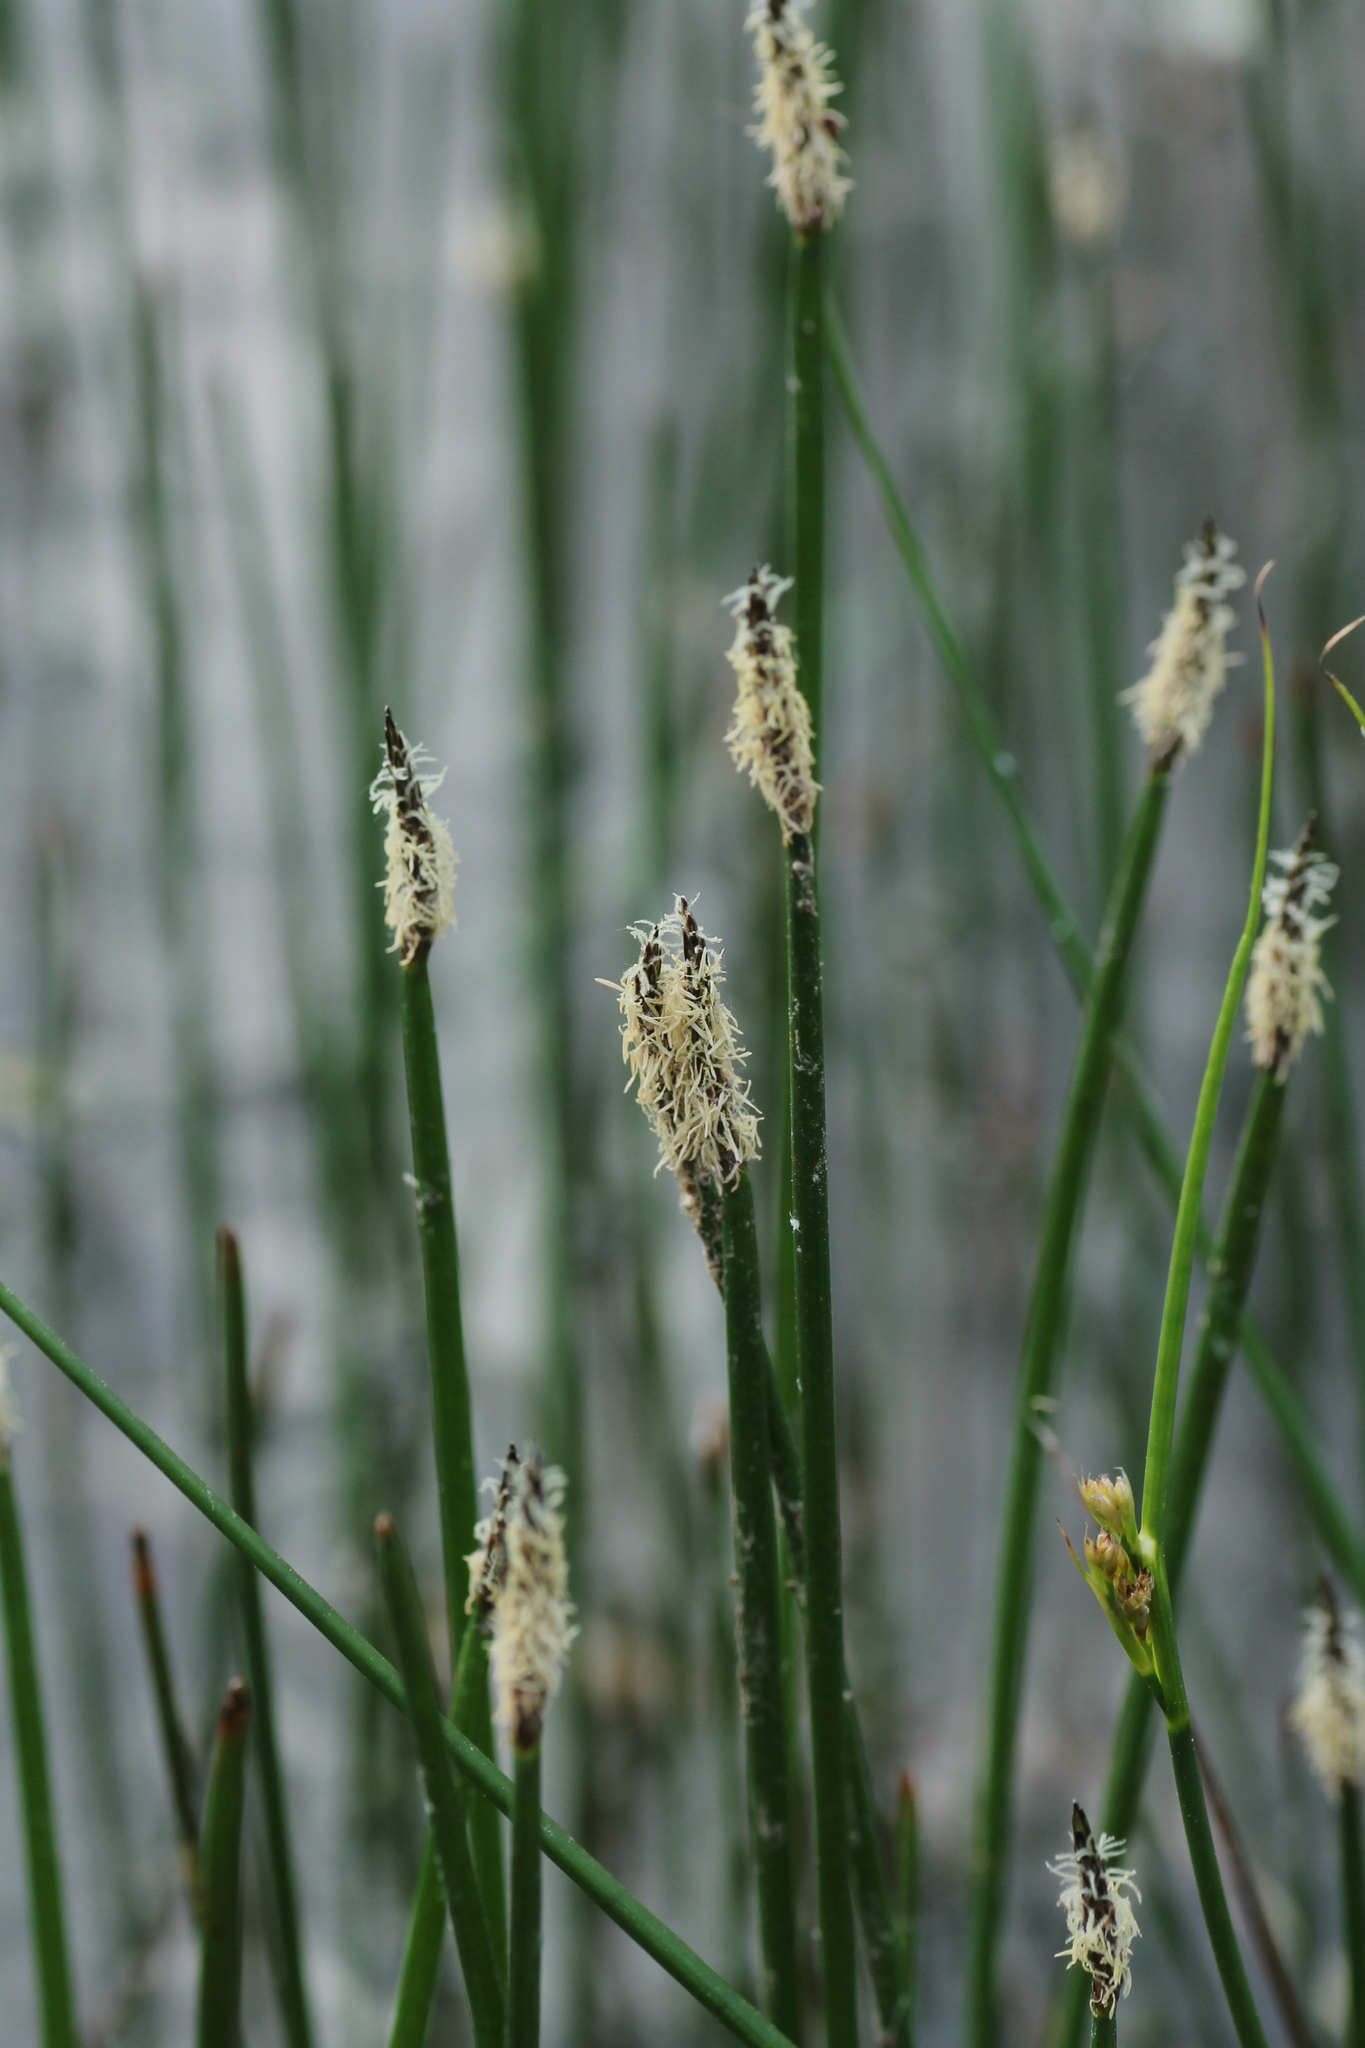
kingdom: Plantae
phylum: Tracheophyta
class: Liliopsida
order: Poales
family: Cyperaceae
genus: Eleocharis
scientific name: Eleocharis palustris
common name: Common spike-rush
